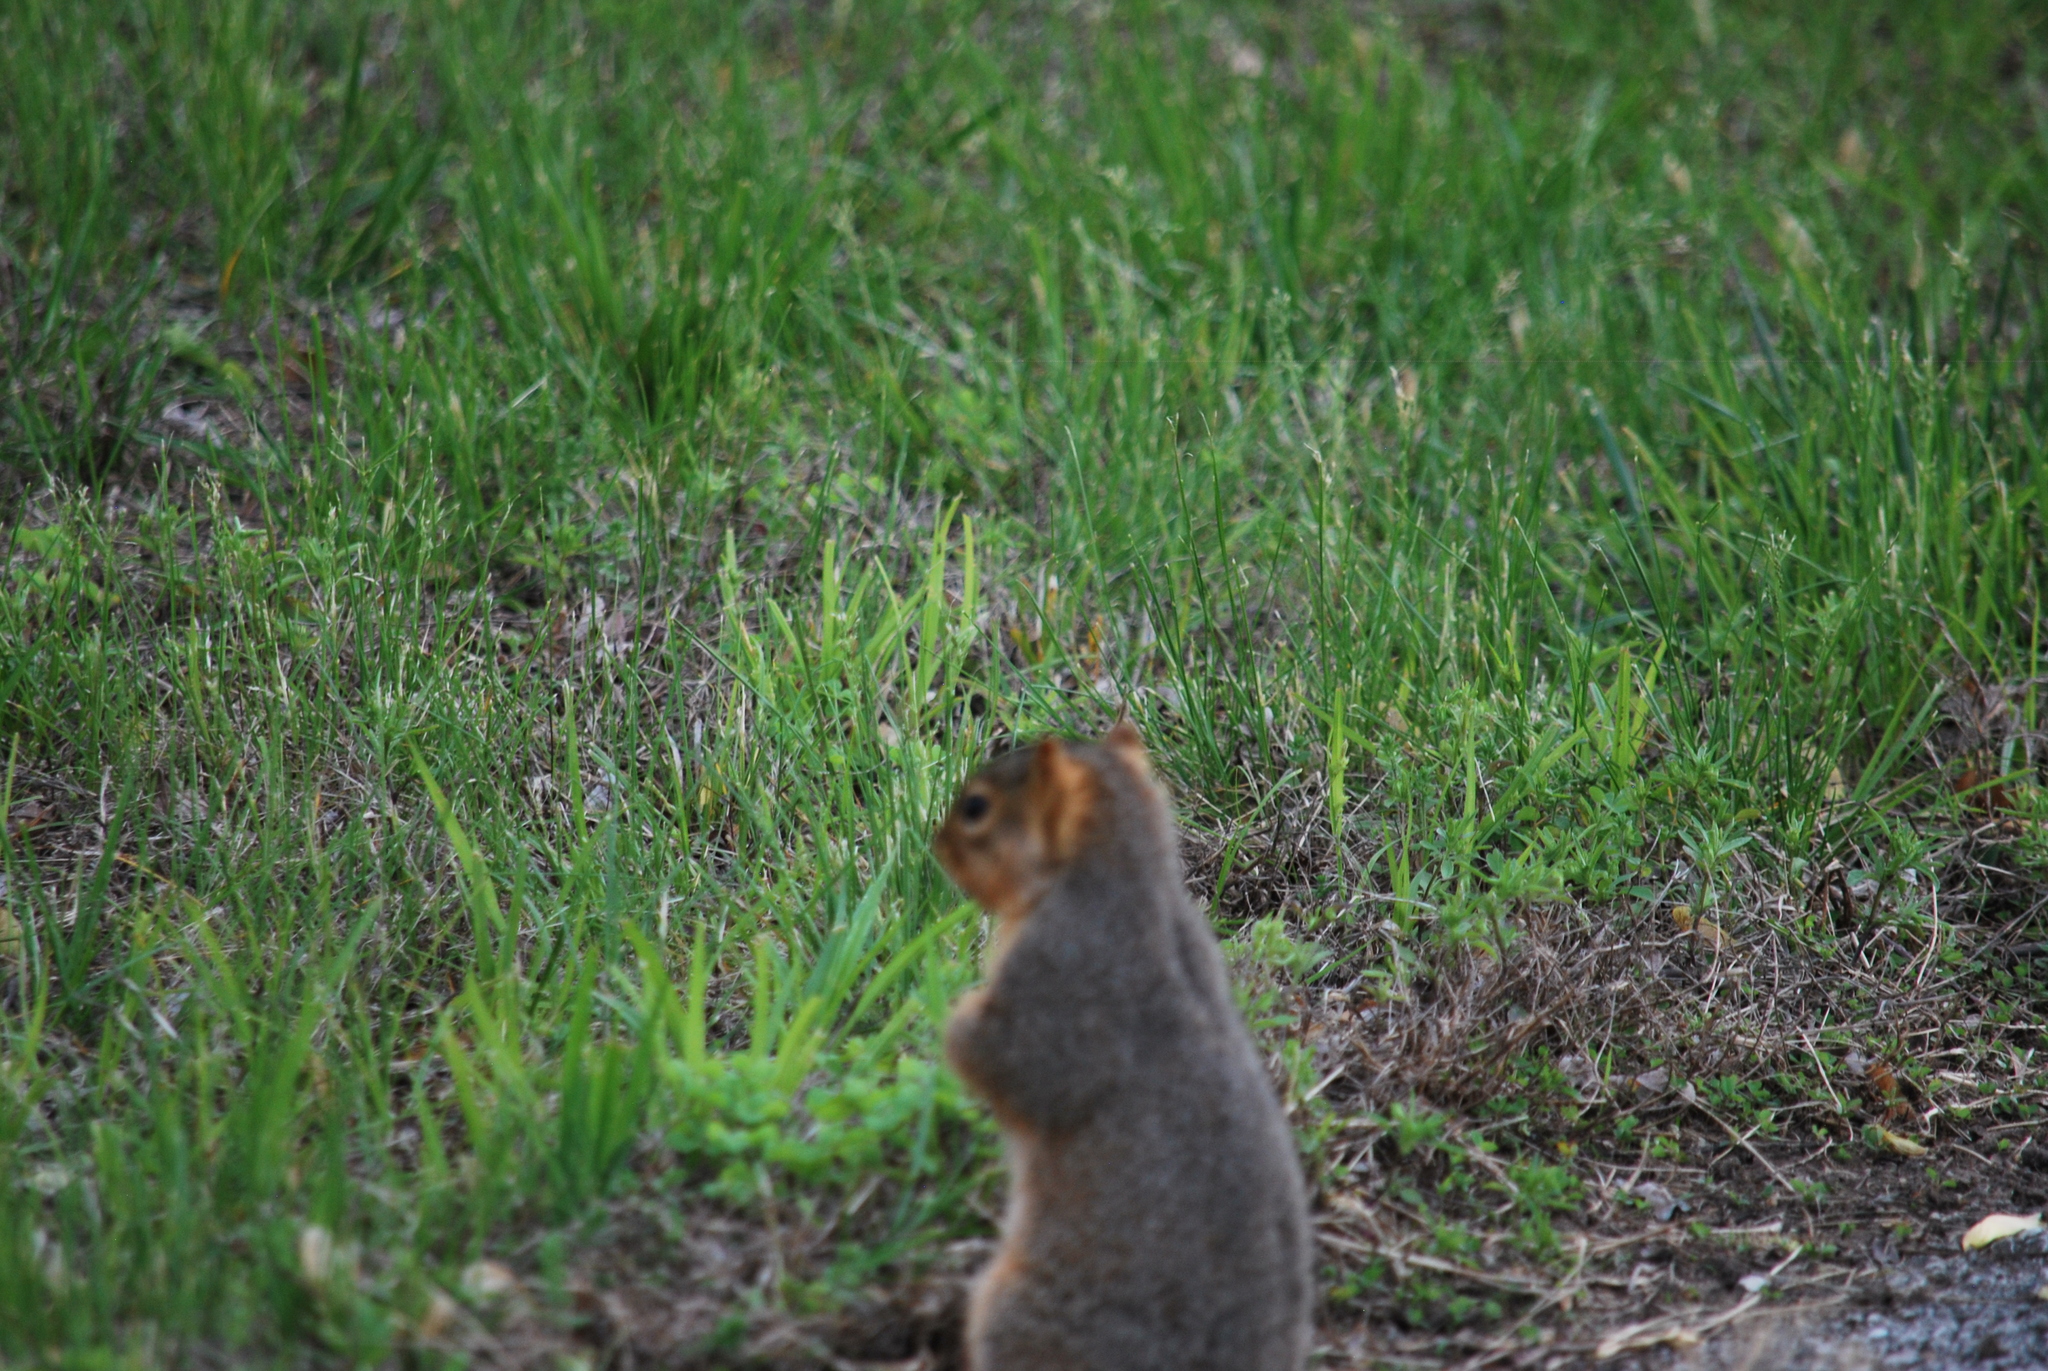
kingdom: Animalia
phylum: Chordata
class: Mammalia
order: Rodentia
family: Sciuridae
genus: Sciurus
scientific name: Sciurus niger
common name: Fox squirrel
